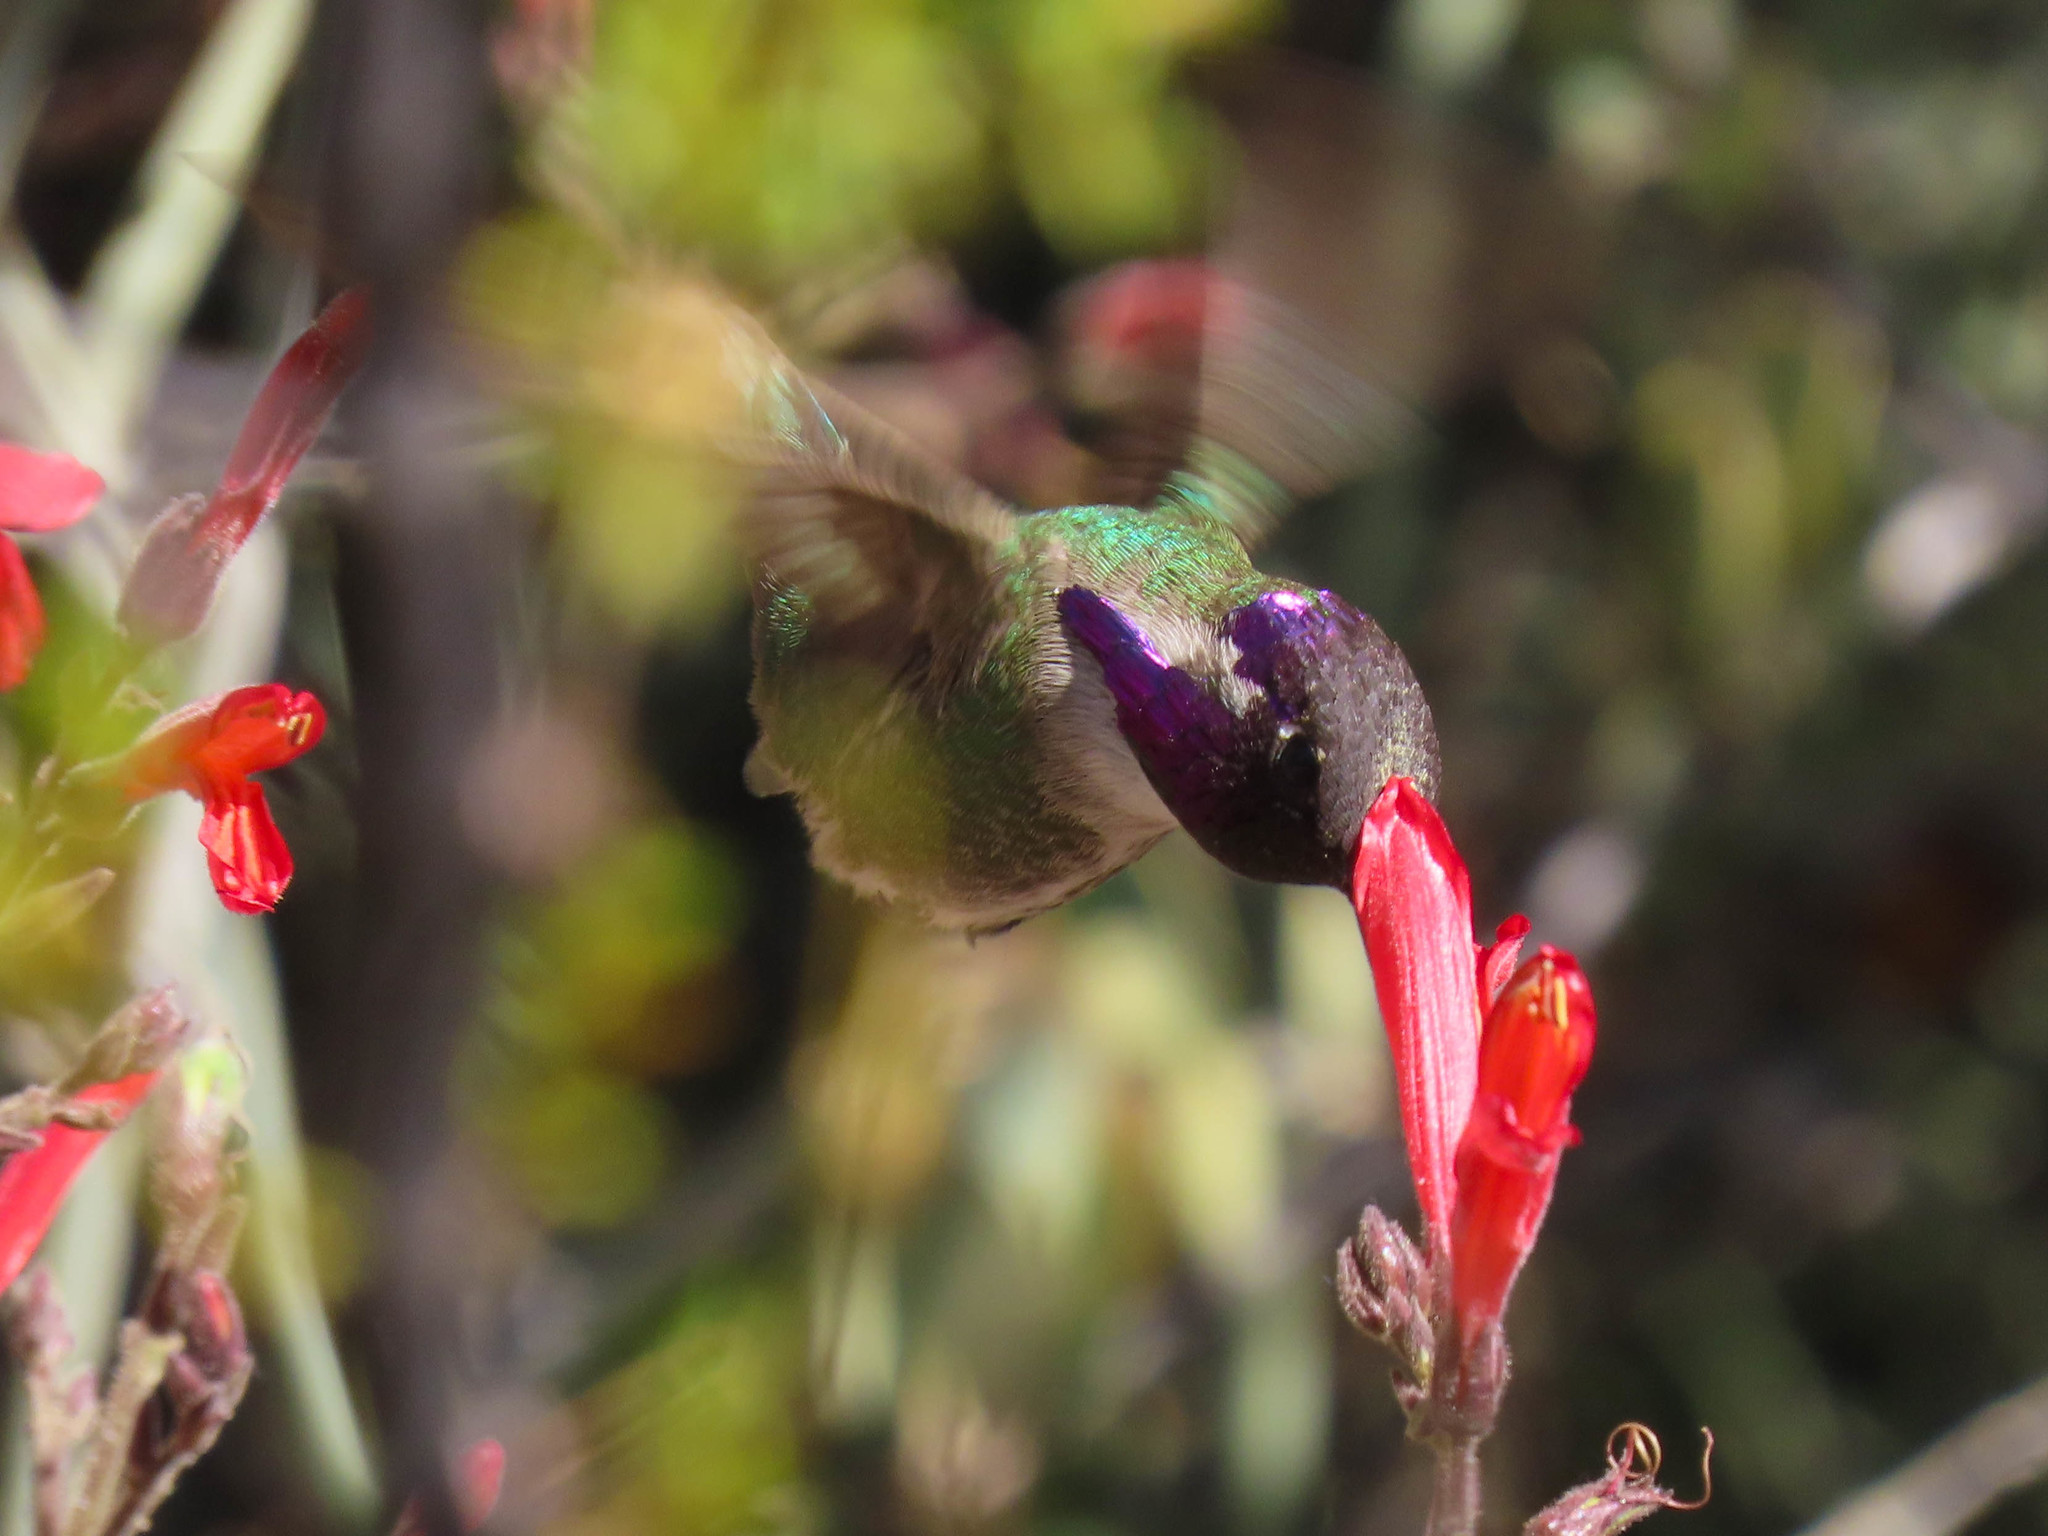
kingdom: Animalia
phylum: Chordata
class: Aves
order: Apodiformes
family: Trochilidae
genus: Calypte
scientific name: Calypte costae
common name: Costa's hummingbird
